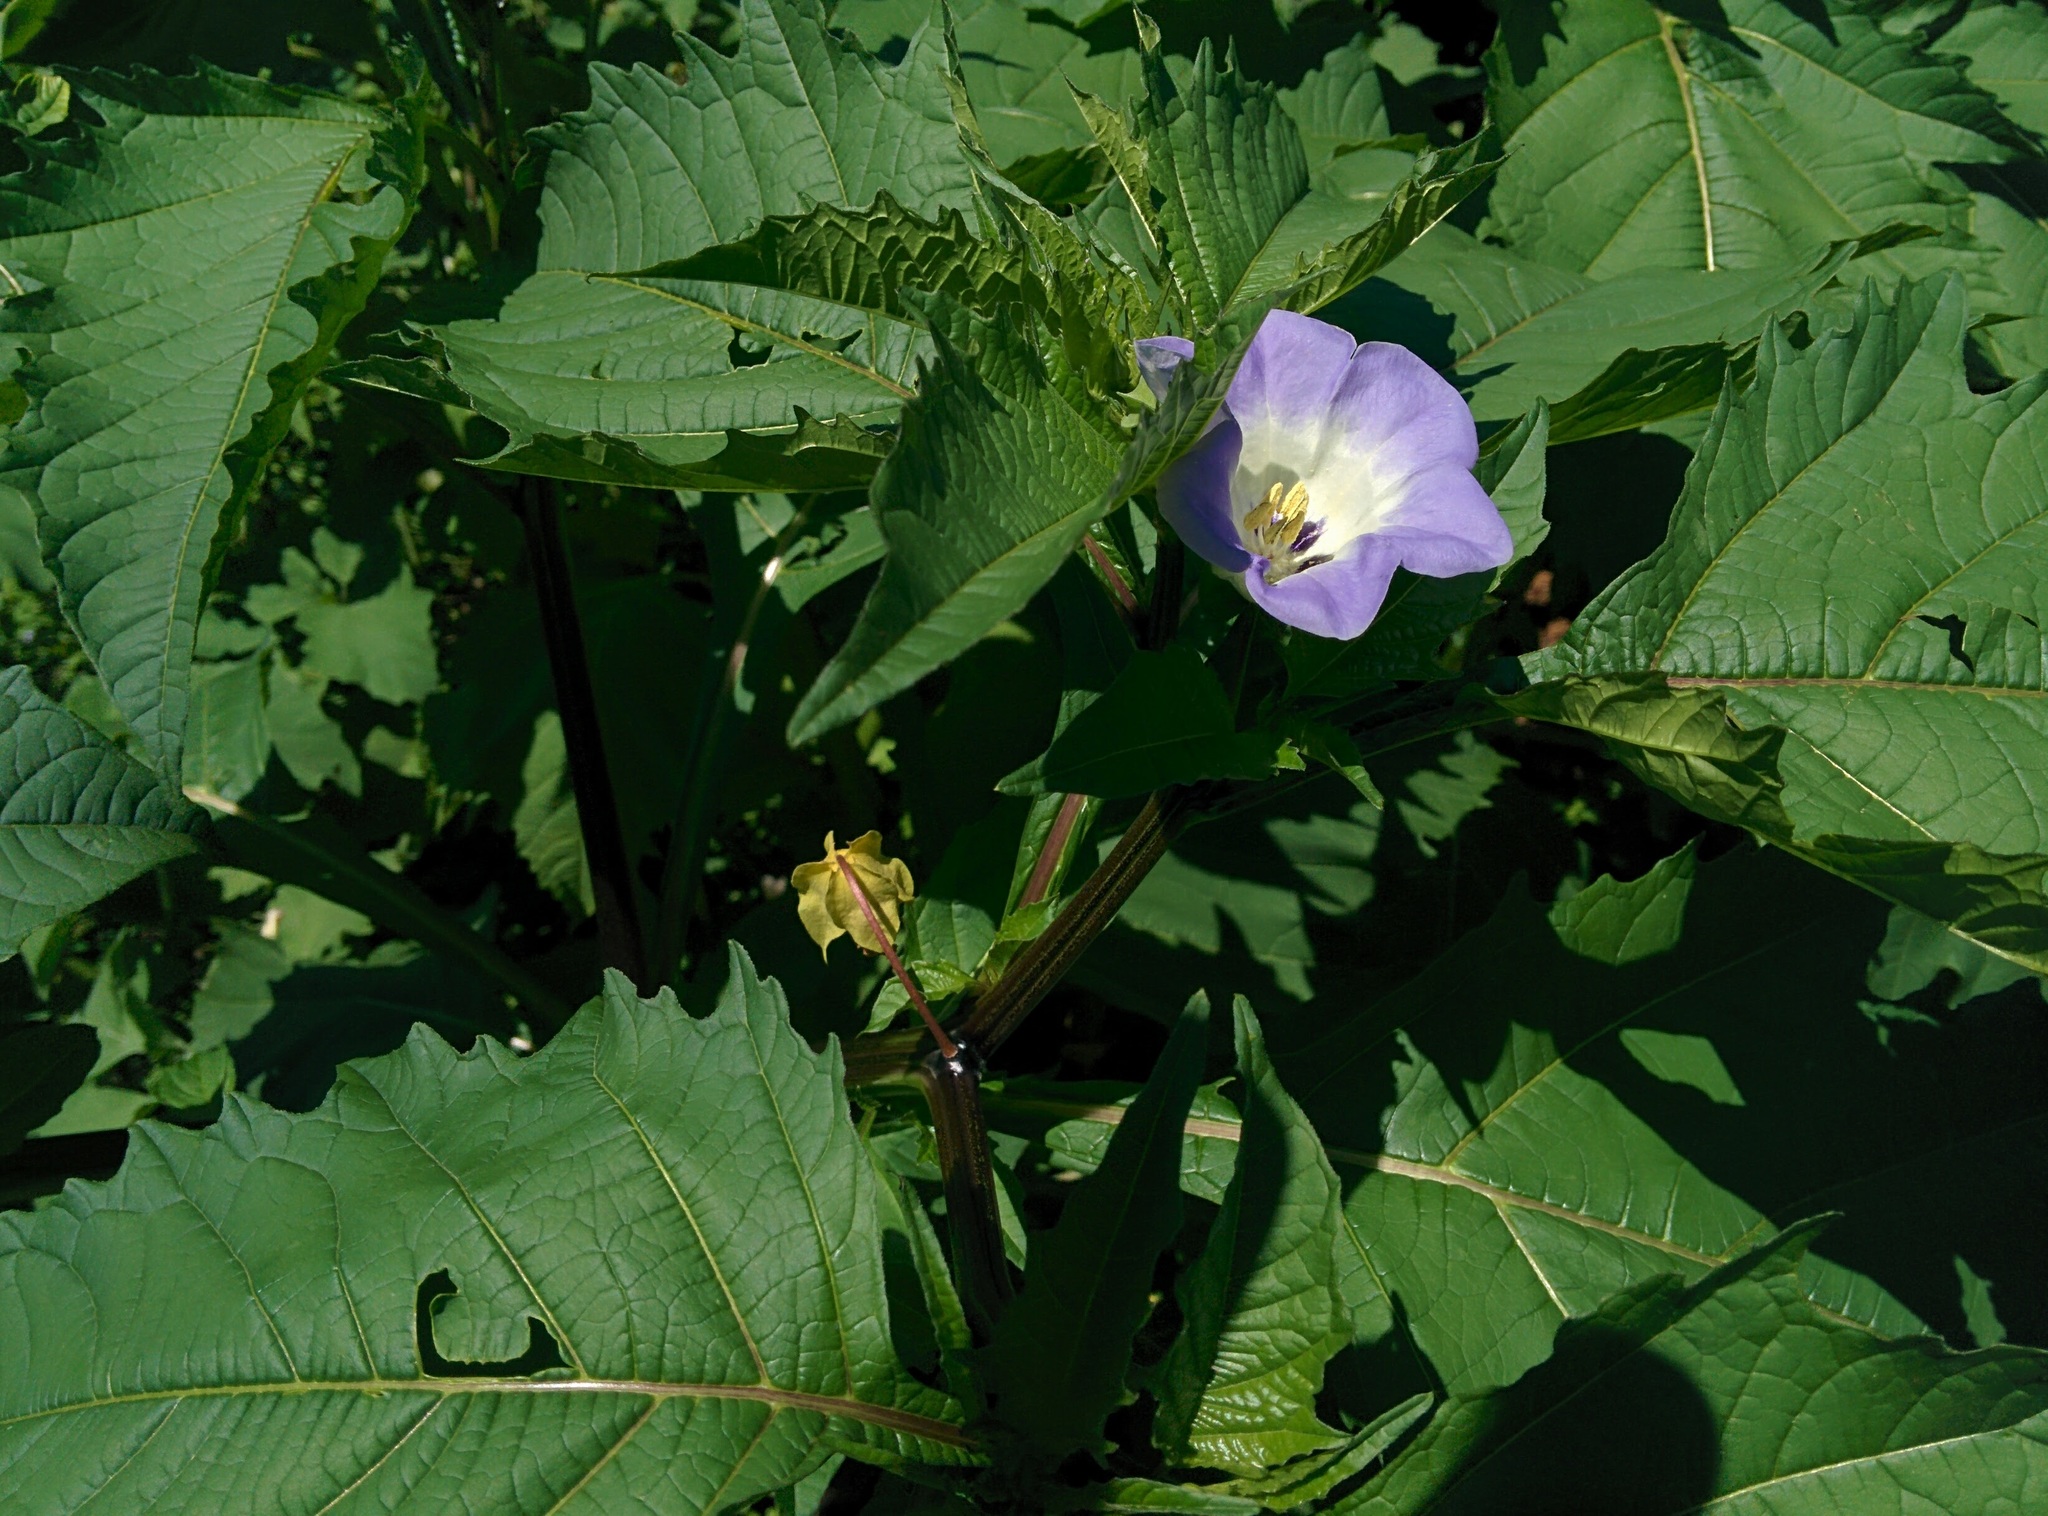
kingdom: Plantae
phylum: Tracheophyta
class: Magnoliopsida
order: Solanales
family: Solanaceae
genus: Nicandra
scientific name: Nicandra physalodes
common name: Apple-of-peru
